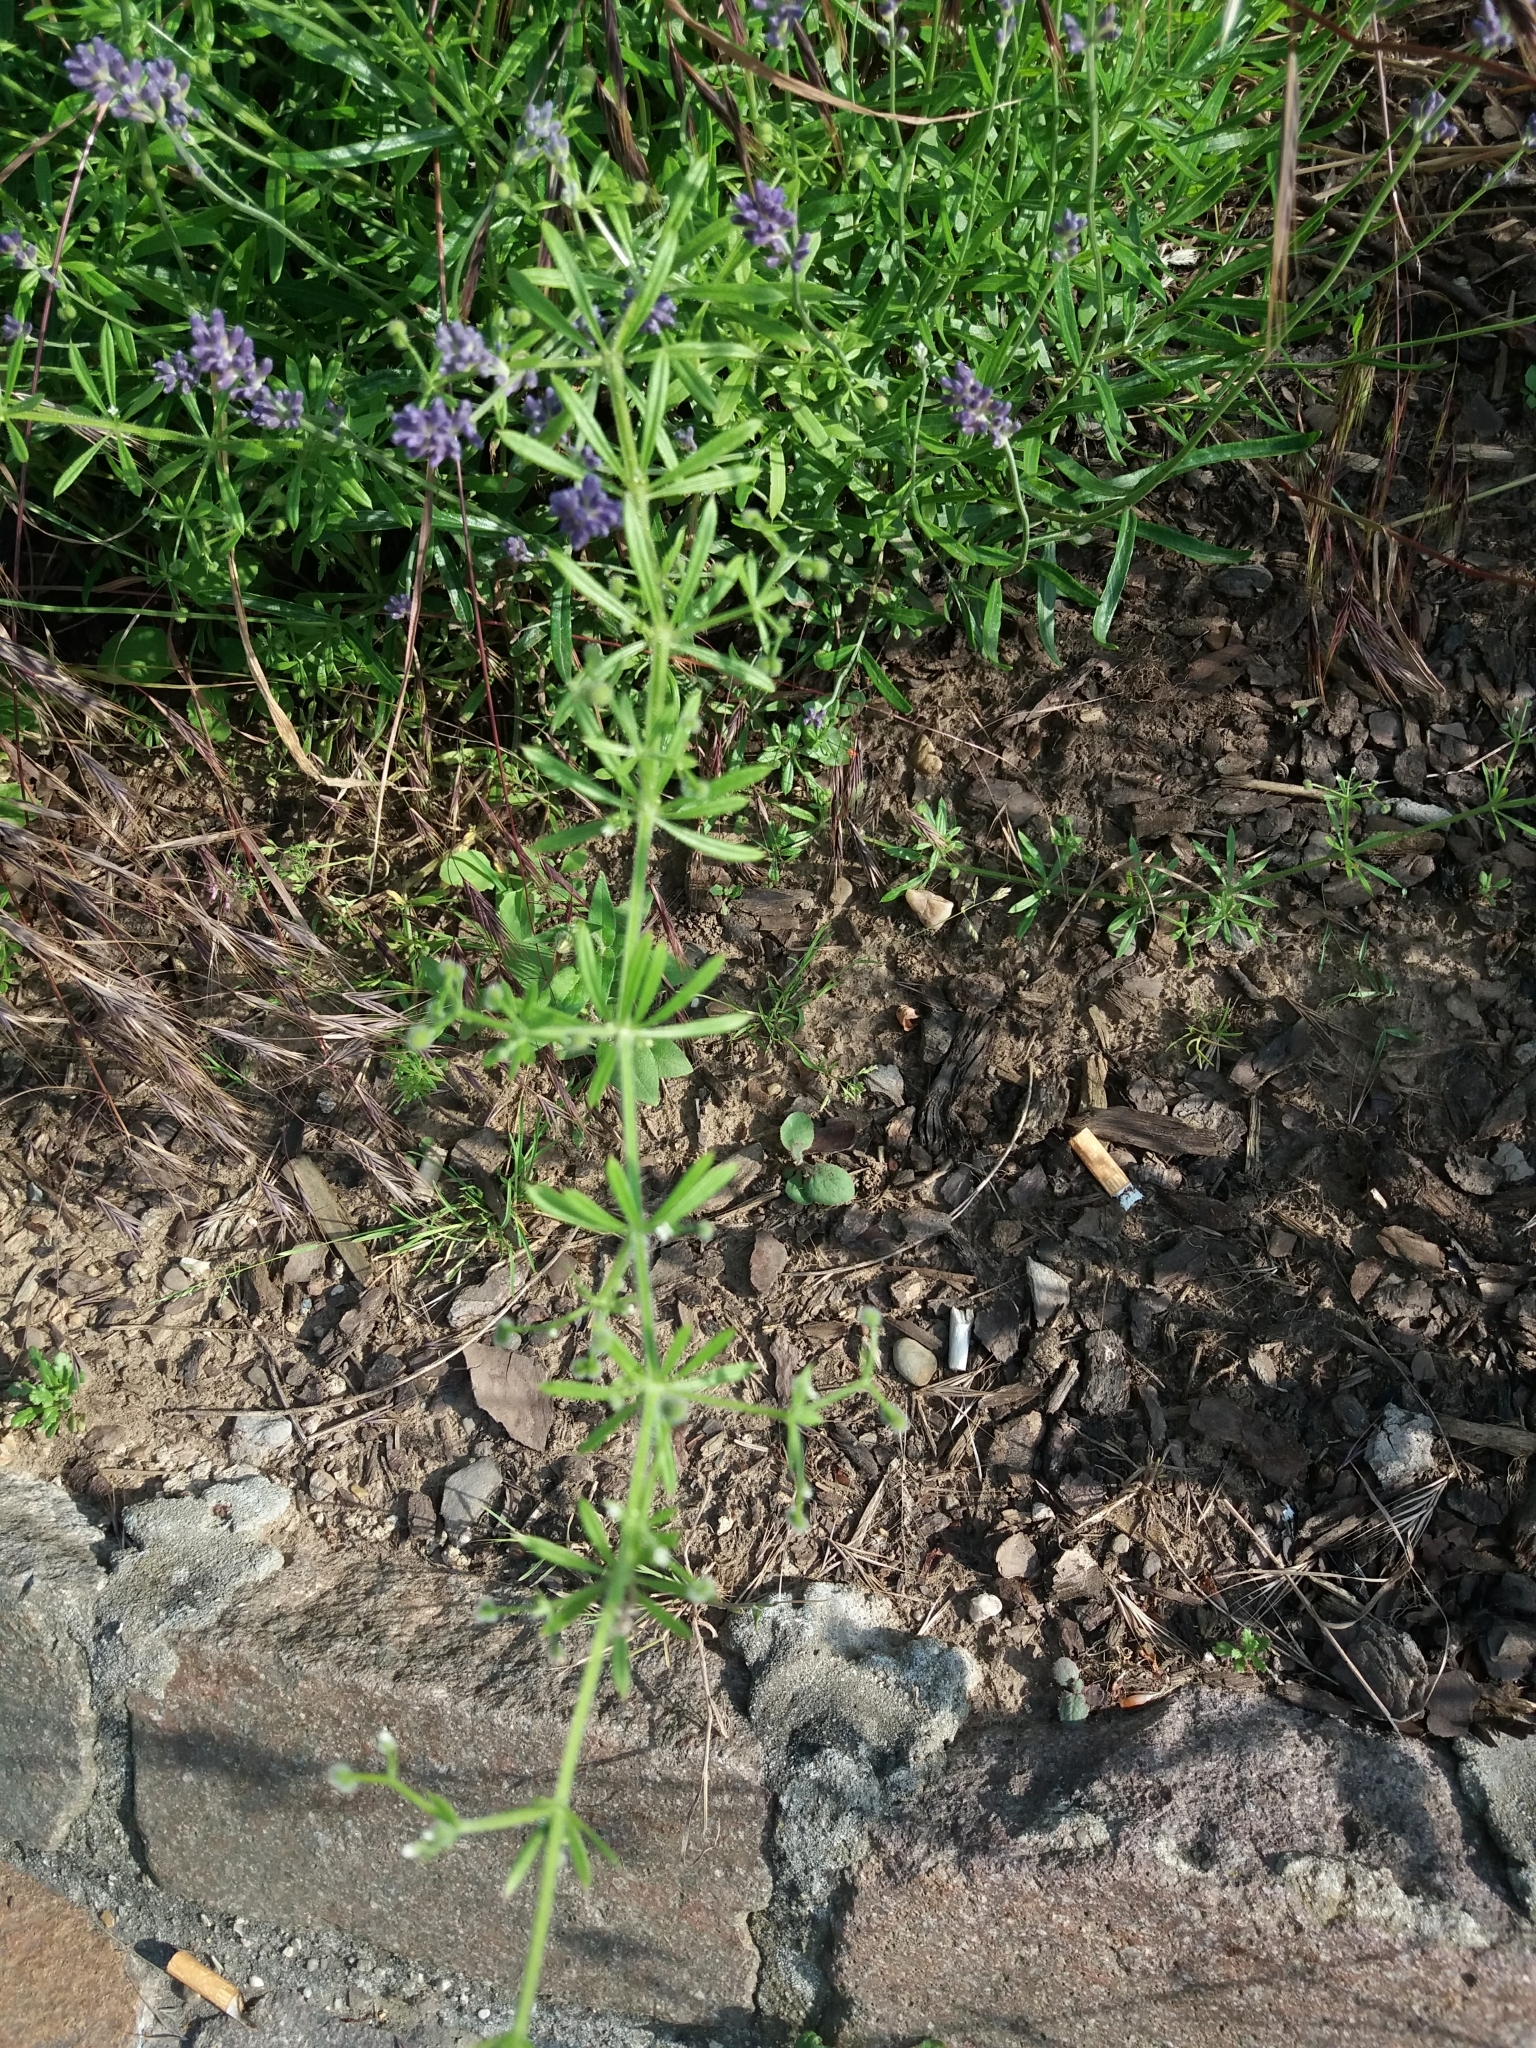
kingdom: Plantae
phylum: Tracheophyta
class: Magnoliopsida
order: Gentianales
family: Rubiaceae
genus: Galium
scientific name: Galium aparine
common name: Cleavers
